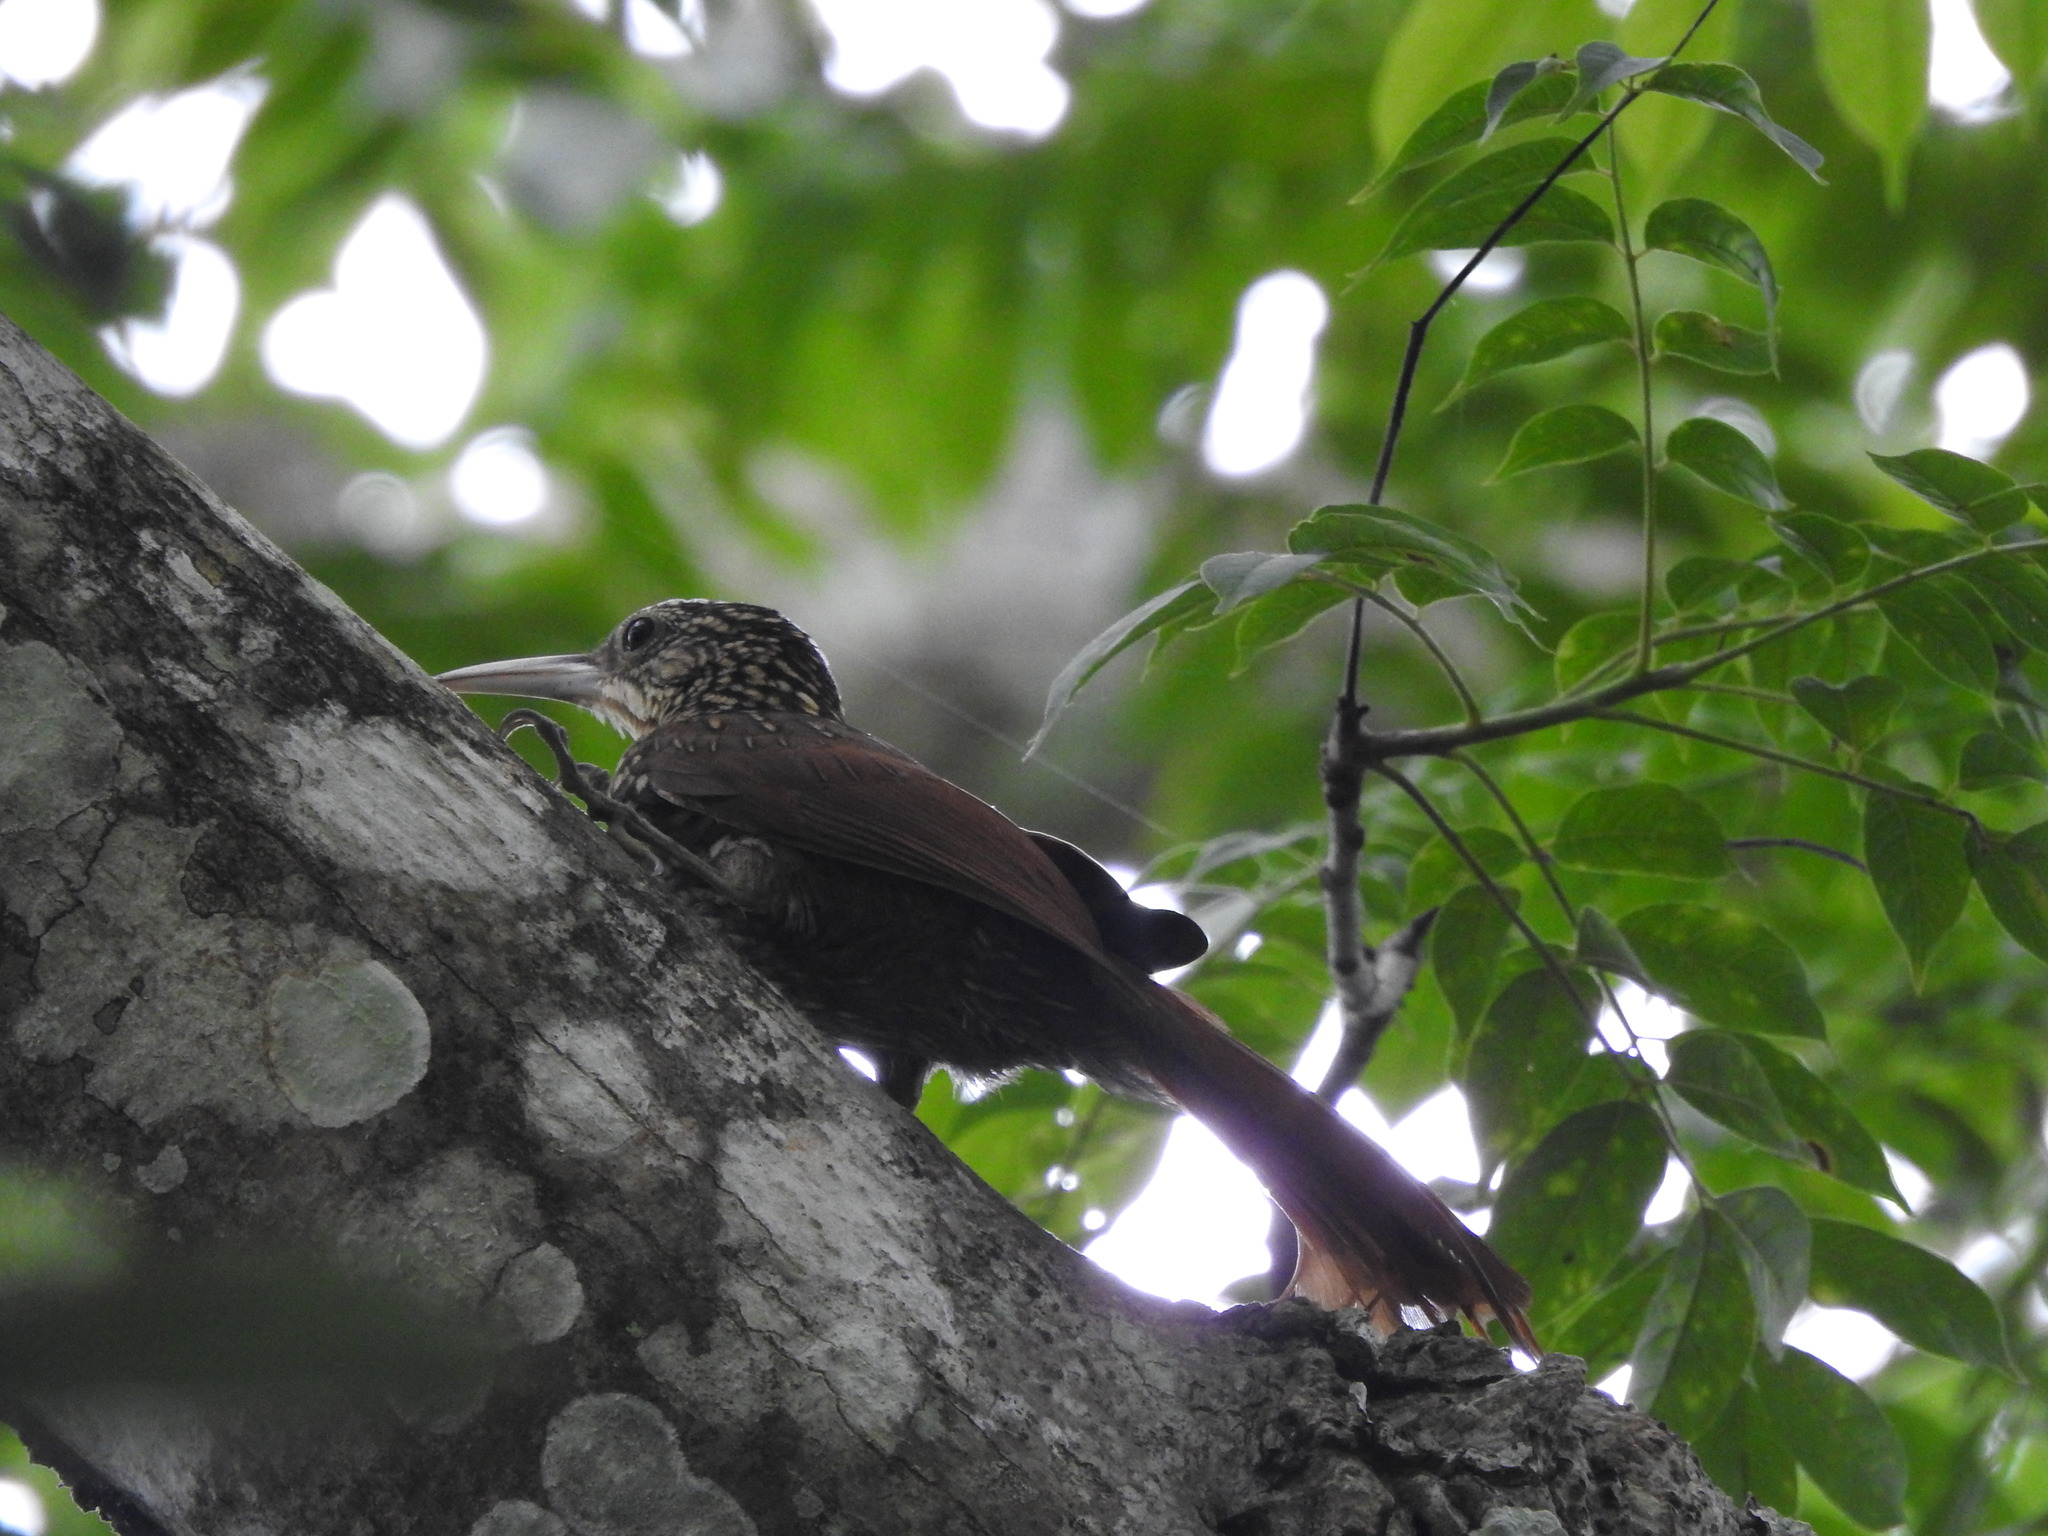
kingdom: Animalia
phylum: Chordata
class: Aves
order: Passeriformes
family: Furnariidae
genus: Xiphorhynchus
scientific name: Xiphorhynchus flavigaster
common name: Ivory-billed woodcreeper
